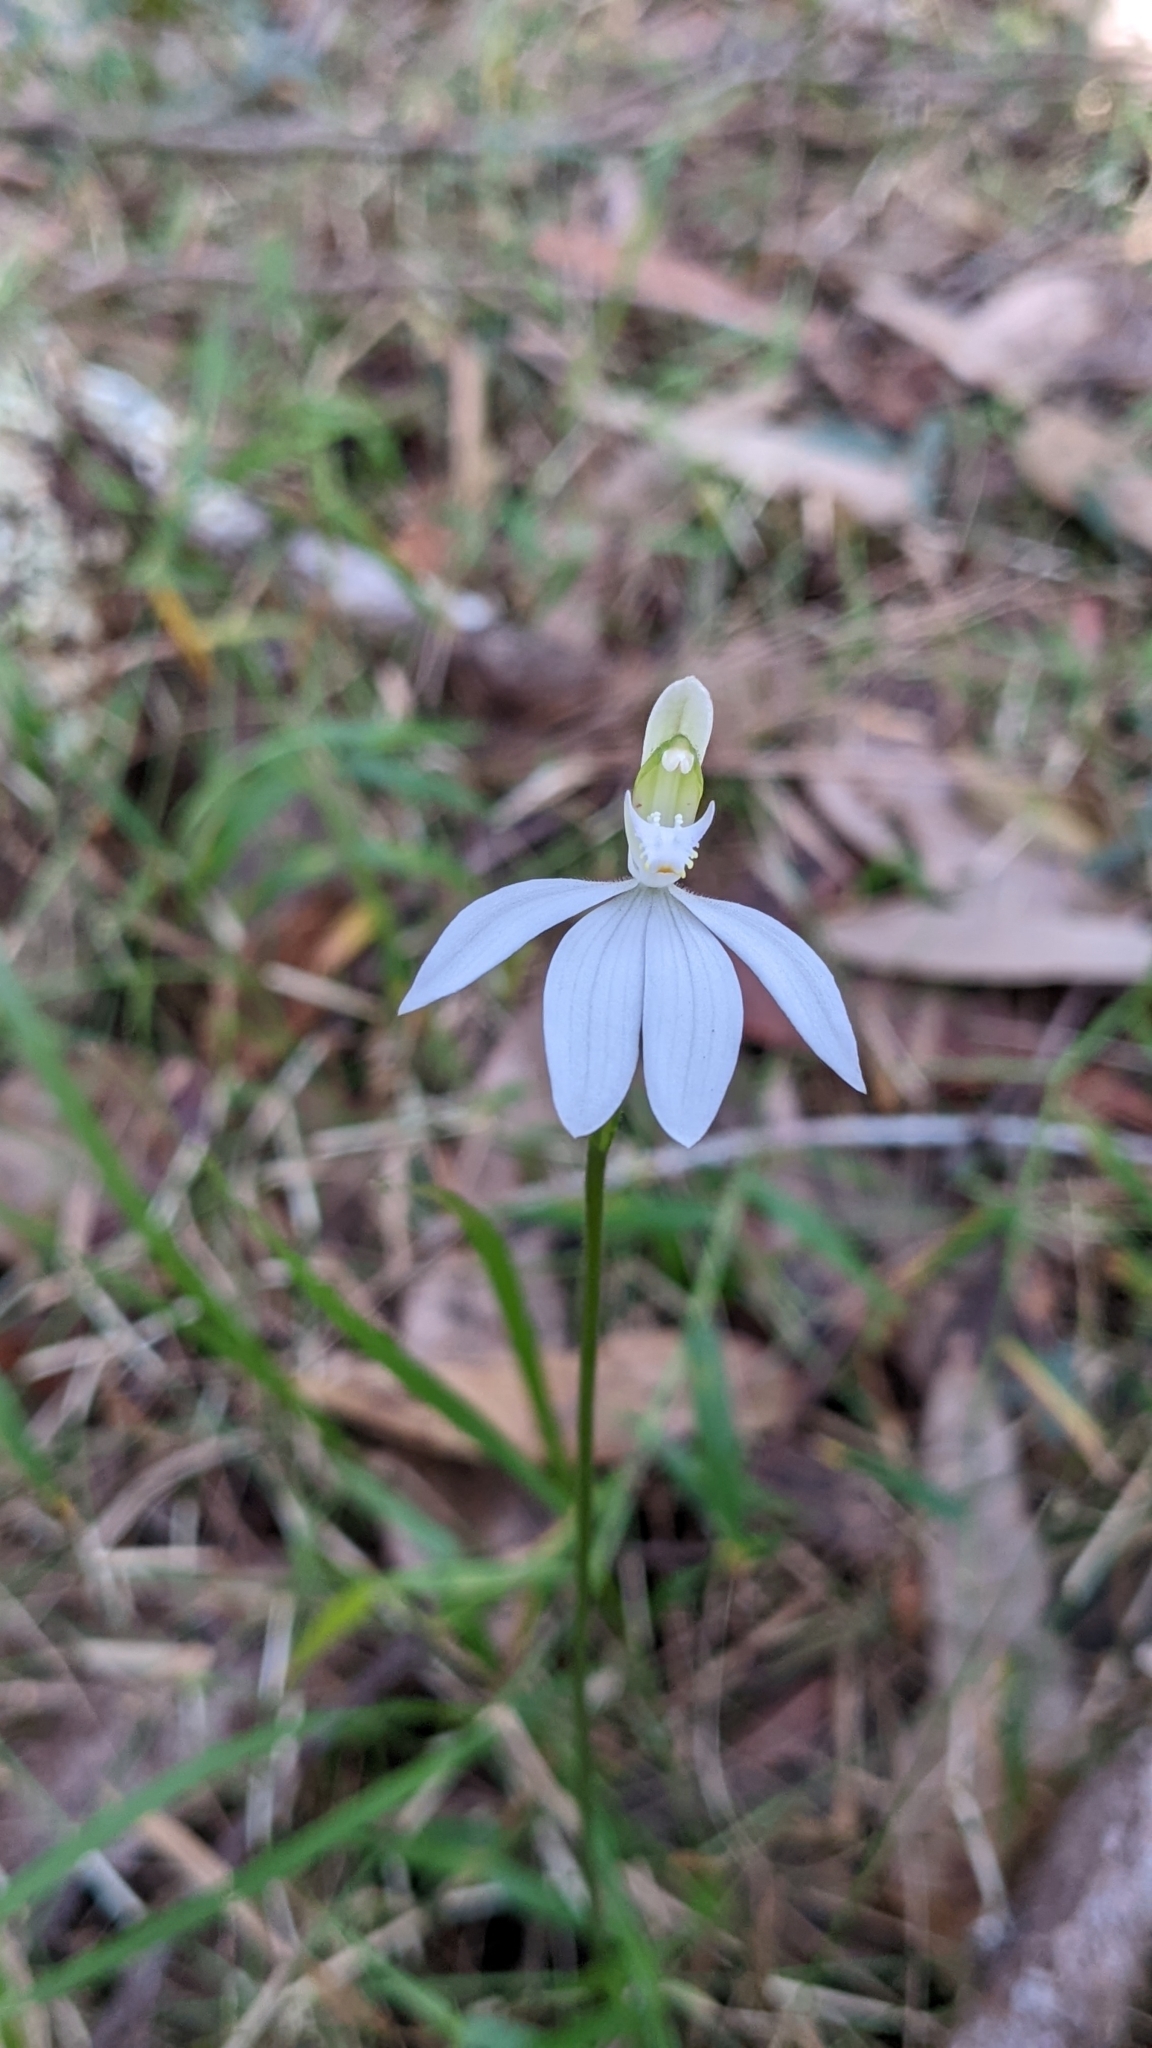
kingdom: Plantae
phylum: Tracheophyta
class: Liliopsida
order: Asparagales
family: Orchidaceae
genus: Caladenia
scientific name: Caladenia picta
